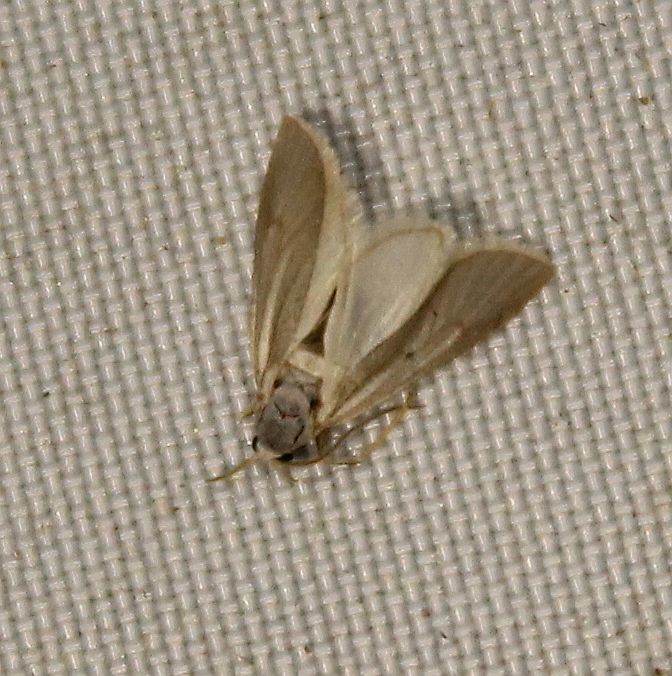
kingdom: Animalia
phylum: Arthropoda
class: Insecta
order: Lepidoptera
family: Crambidae
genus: Acentria
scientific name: Acentria ephemerella
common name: European water moth
